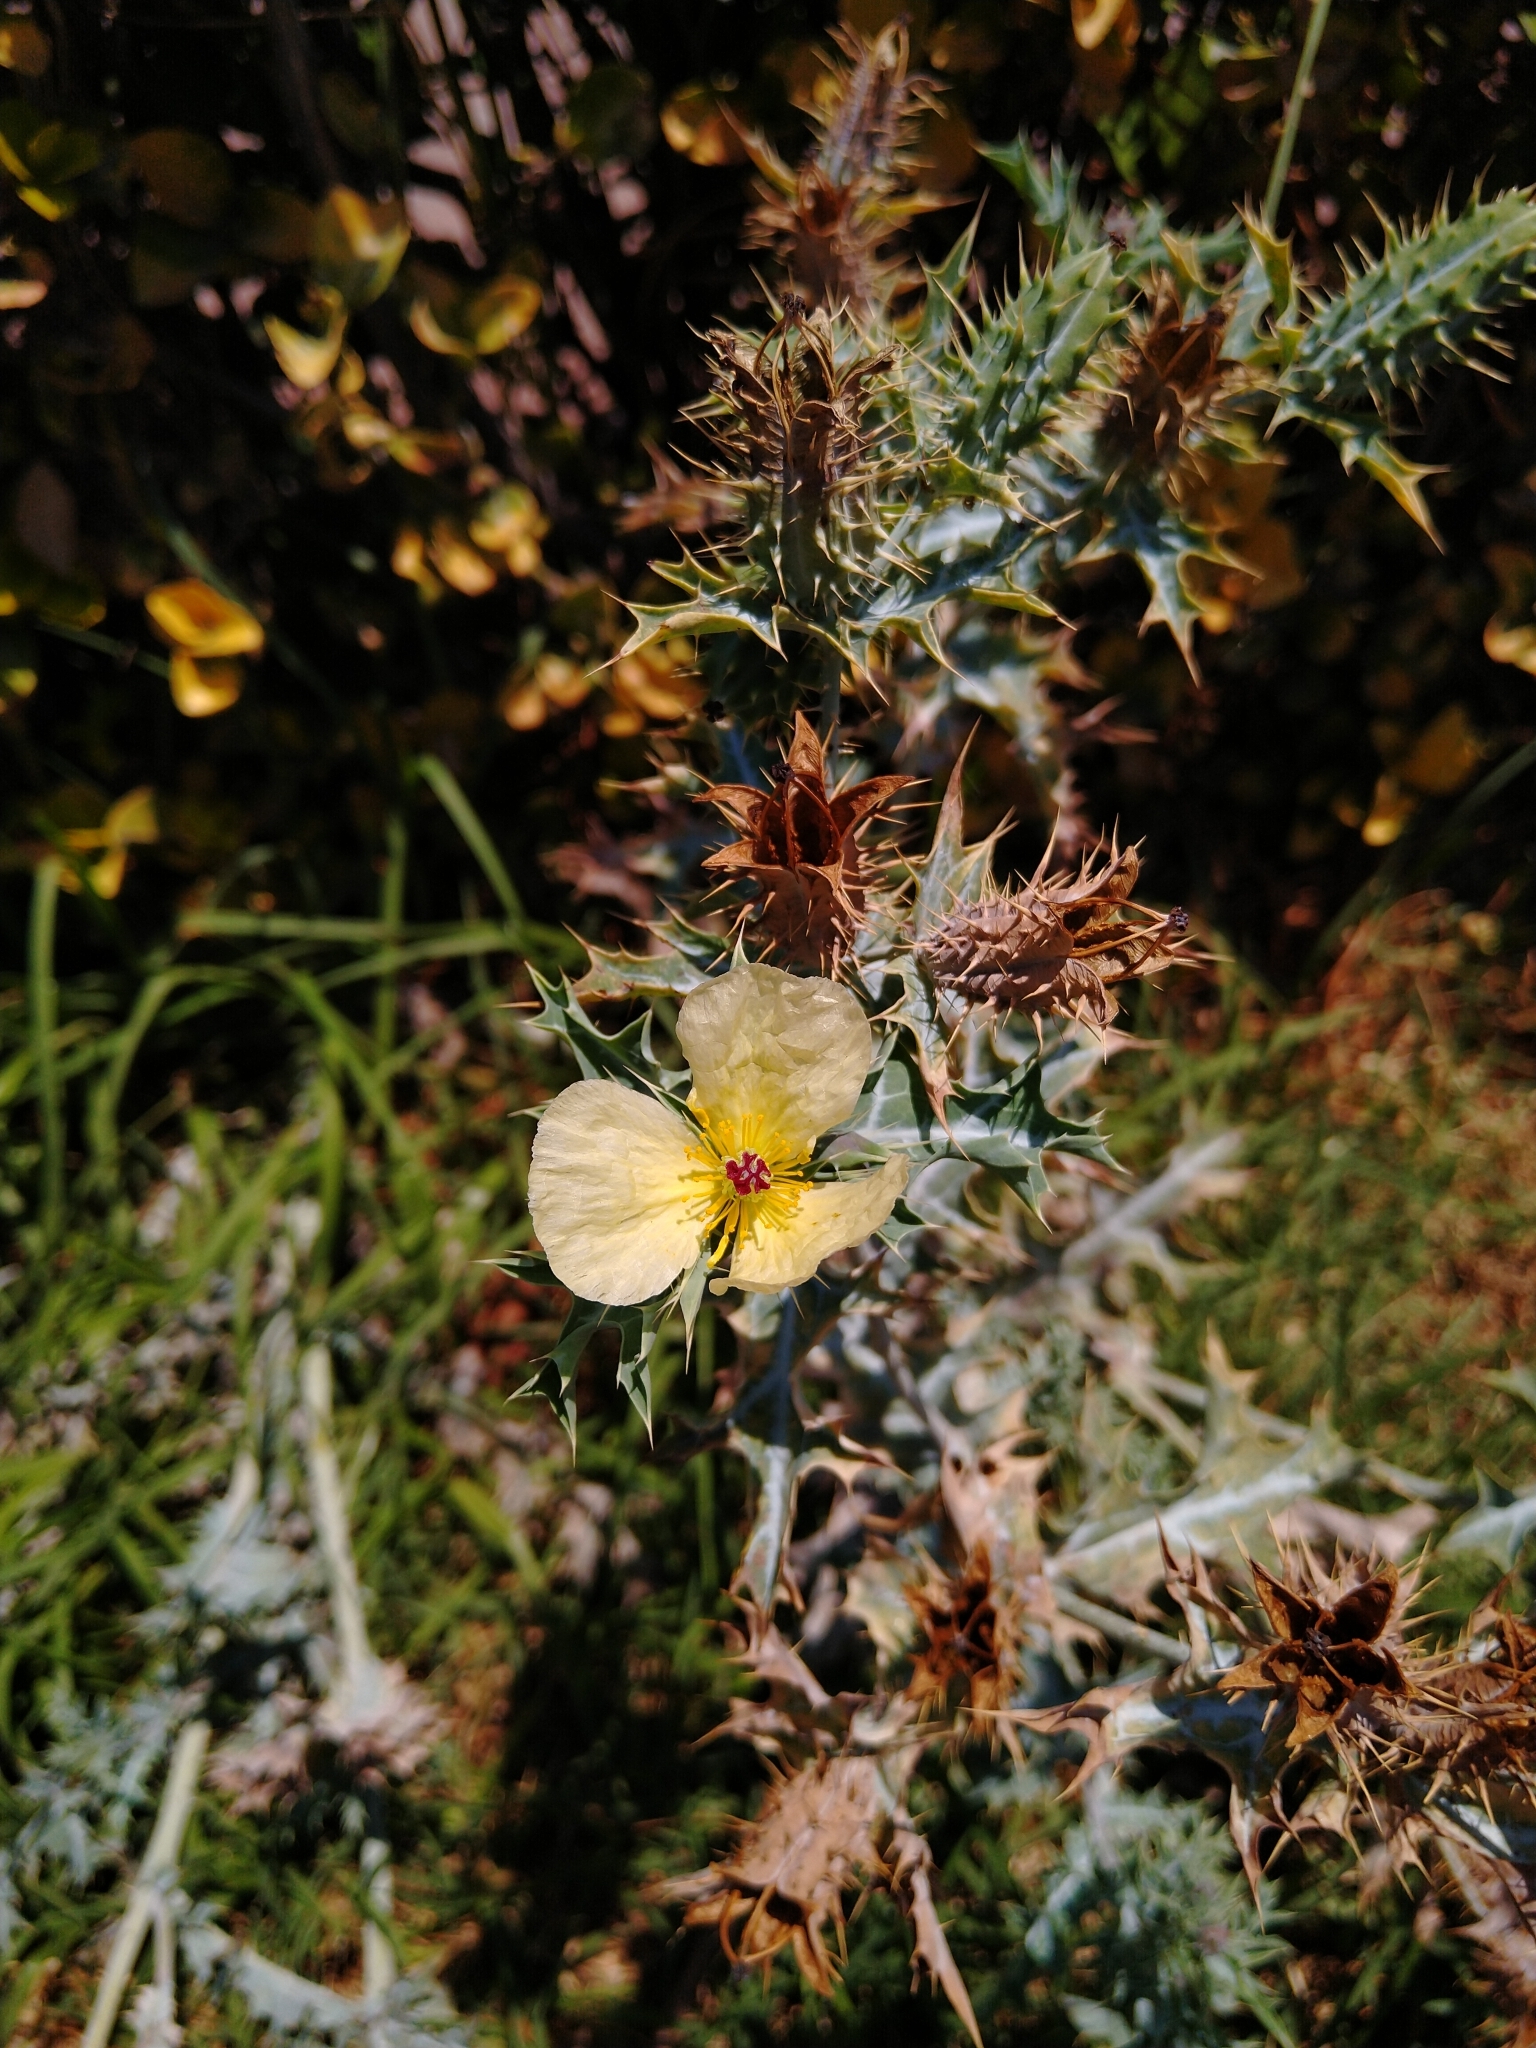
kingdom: Plantae
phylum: Tracheophyta
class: Magnoliopsida
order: Ranunculales
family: Papaveraceae
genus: Argemone
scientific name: Argemone ochroleuca
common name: White-flower mexican-poppy
